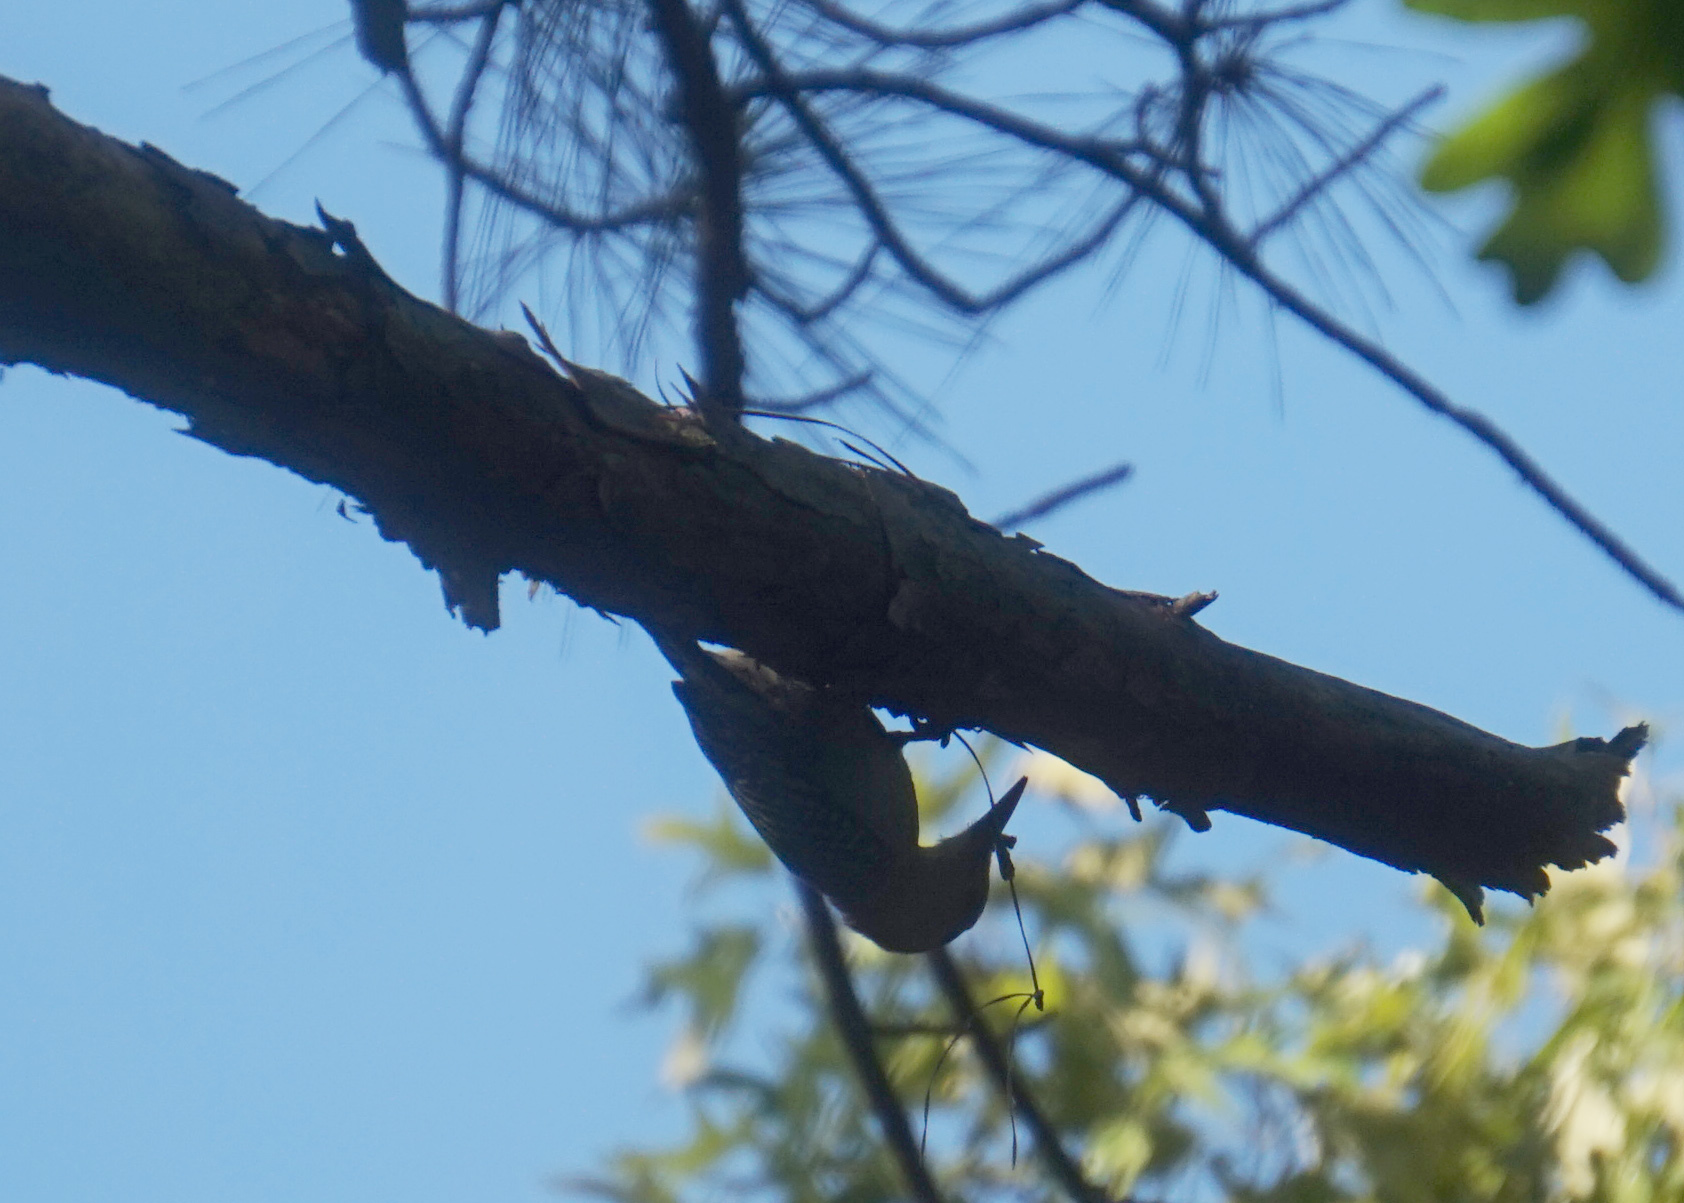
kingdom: Animalia
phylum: Chordata
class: Aves
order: Piciformes
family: Picidae
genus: Melanerpes
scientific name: Melanerpes carolinus
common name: Red-bellied woodpecker
